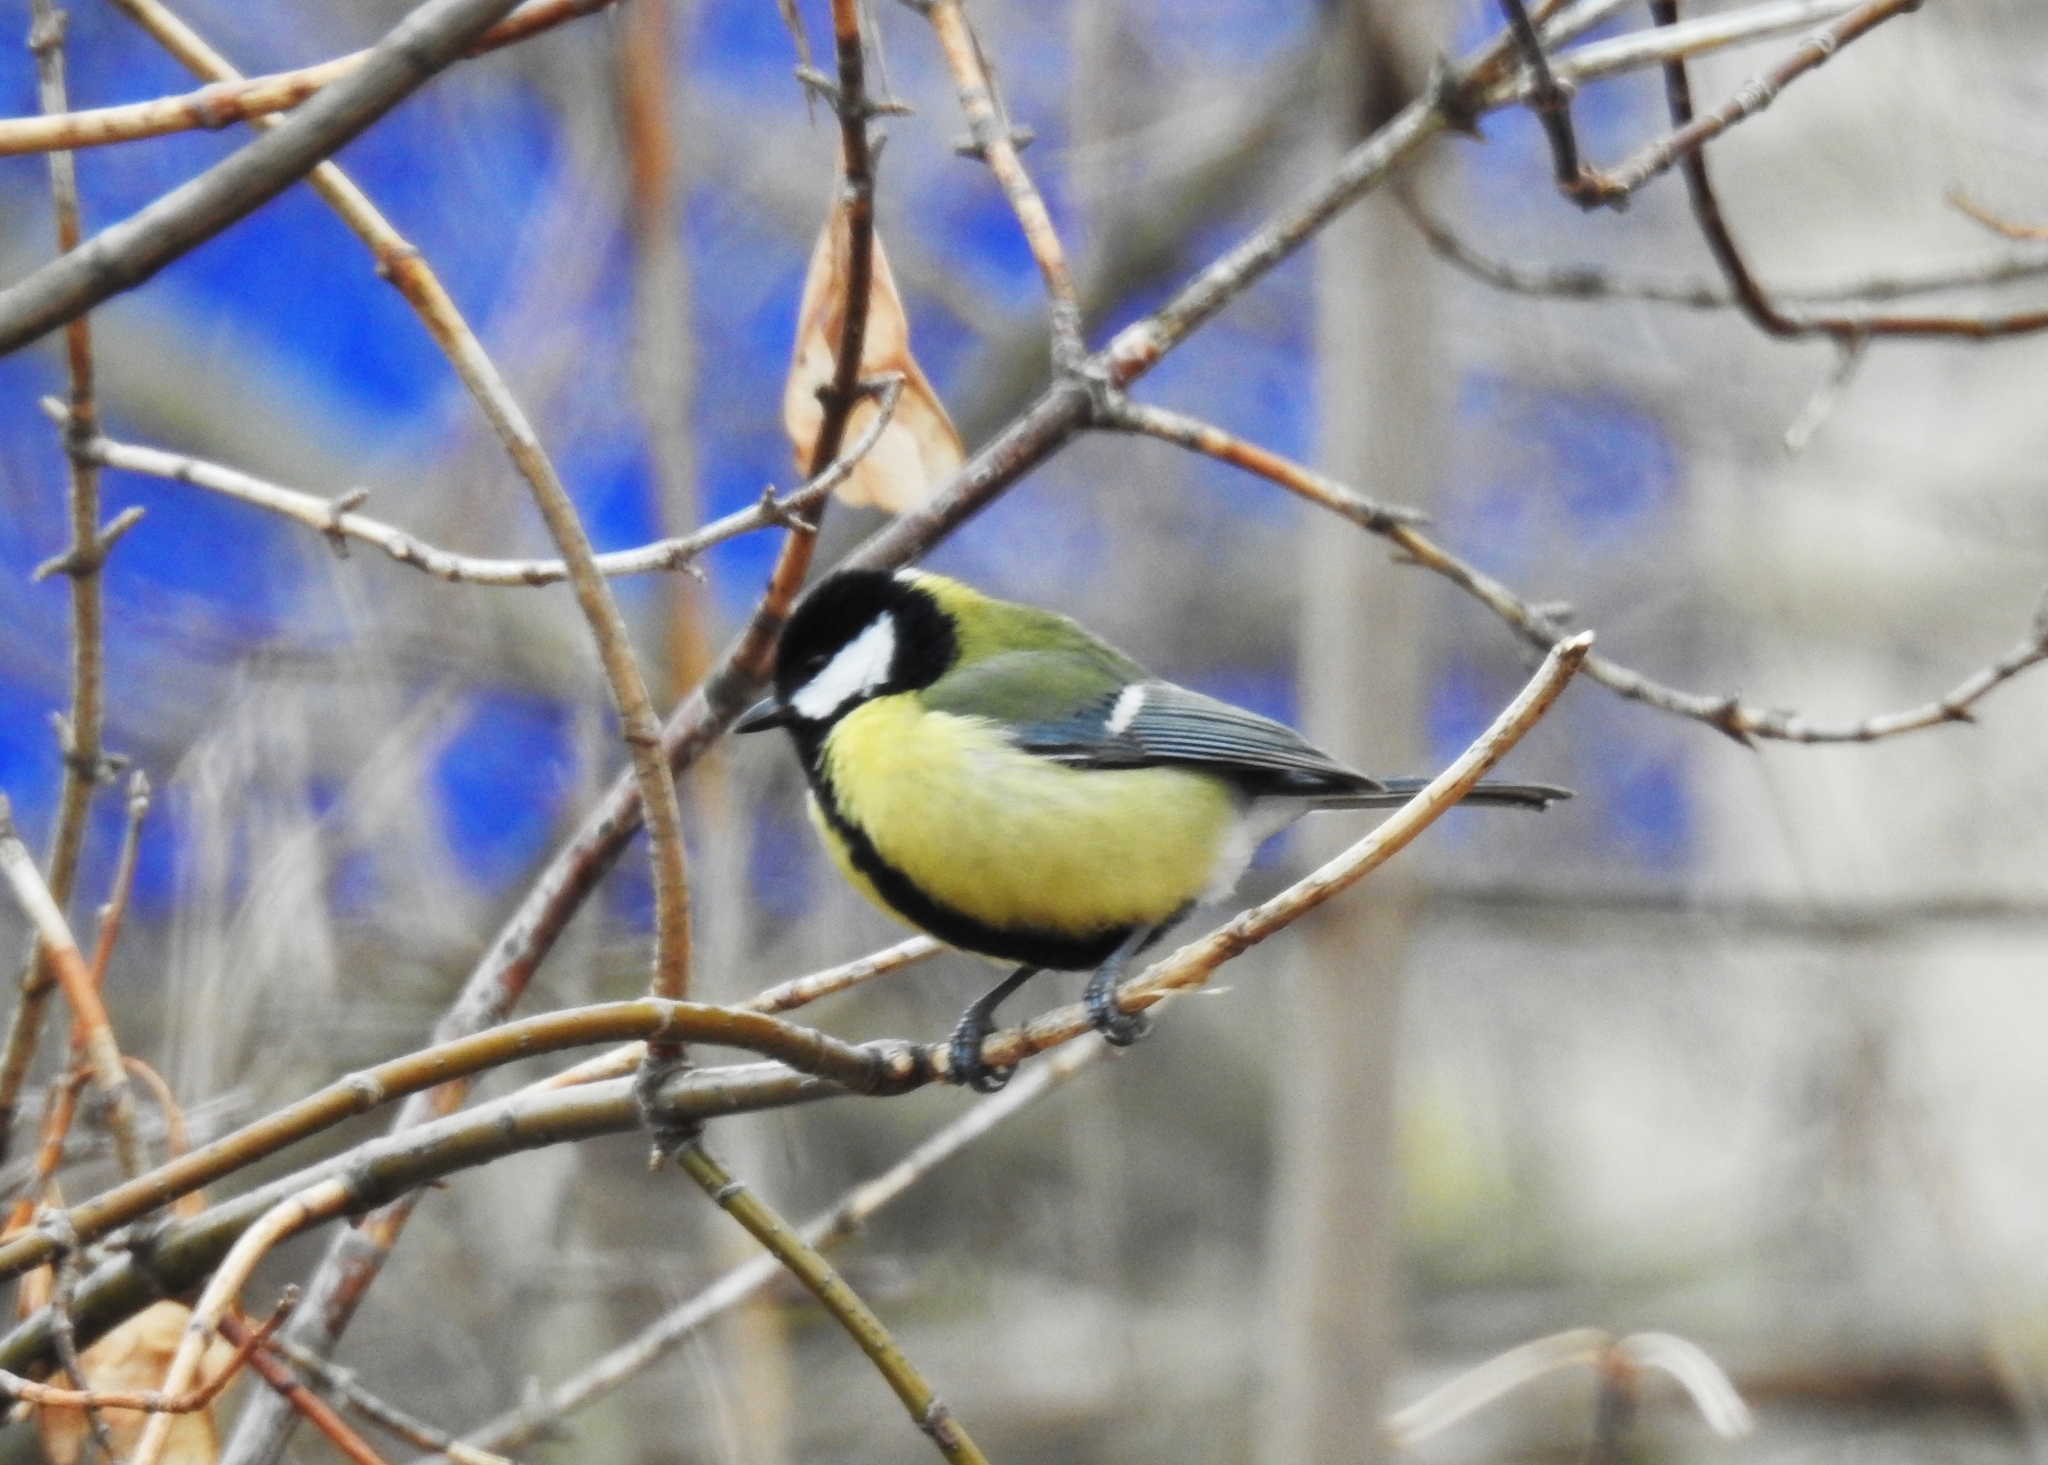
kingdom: Animalia
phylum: Chordata
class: Aves
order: Passeriformes
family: Paridae
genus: Parus
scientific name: Parus major
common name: Great tit
